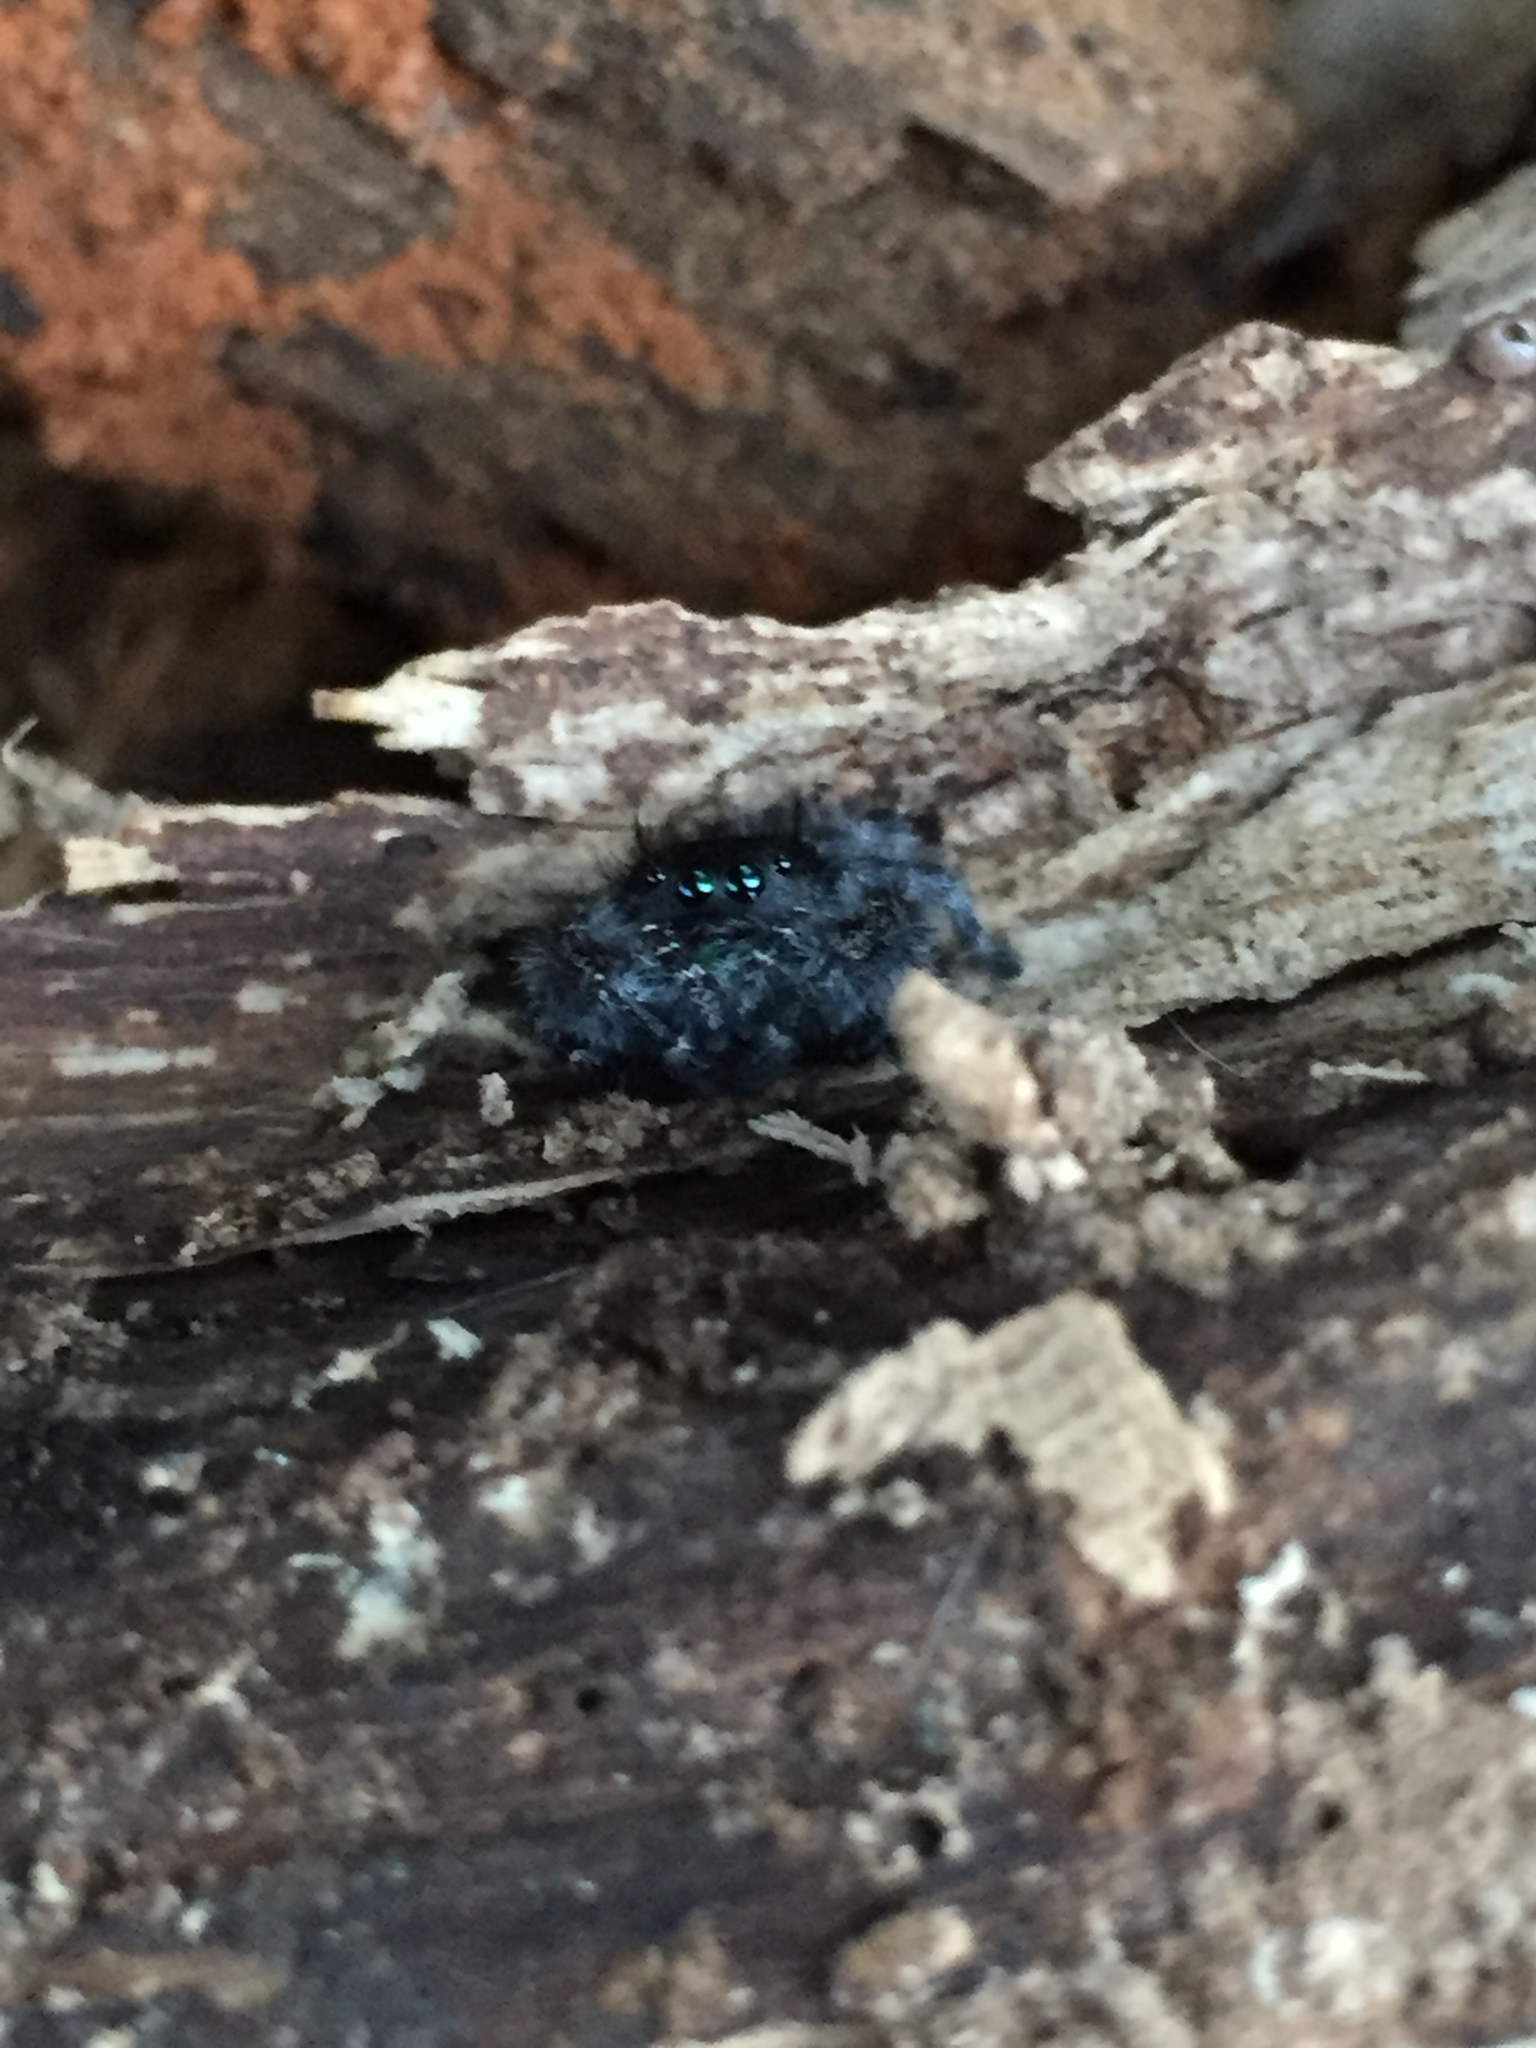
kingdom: Animalia
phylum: Arthropoda
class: Arachnida
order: Araneae
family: Salticidae
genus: Phidippus
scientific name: Phidippus audax
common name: Bold jumper
